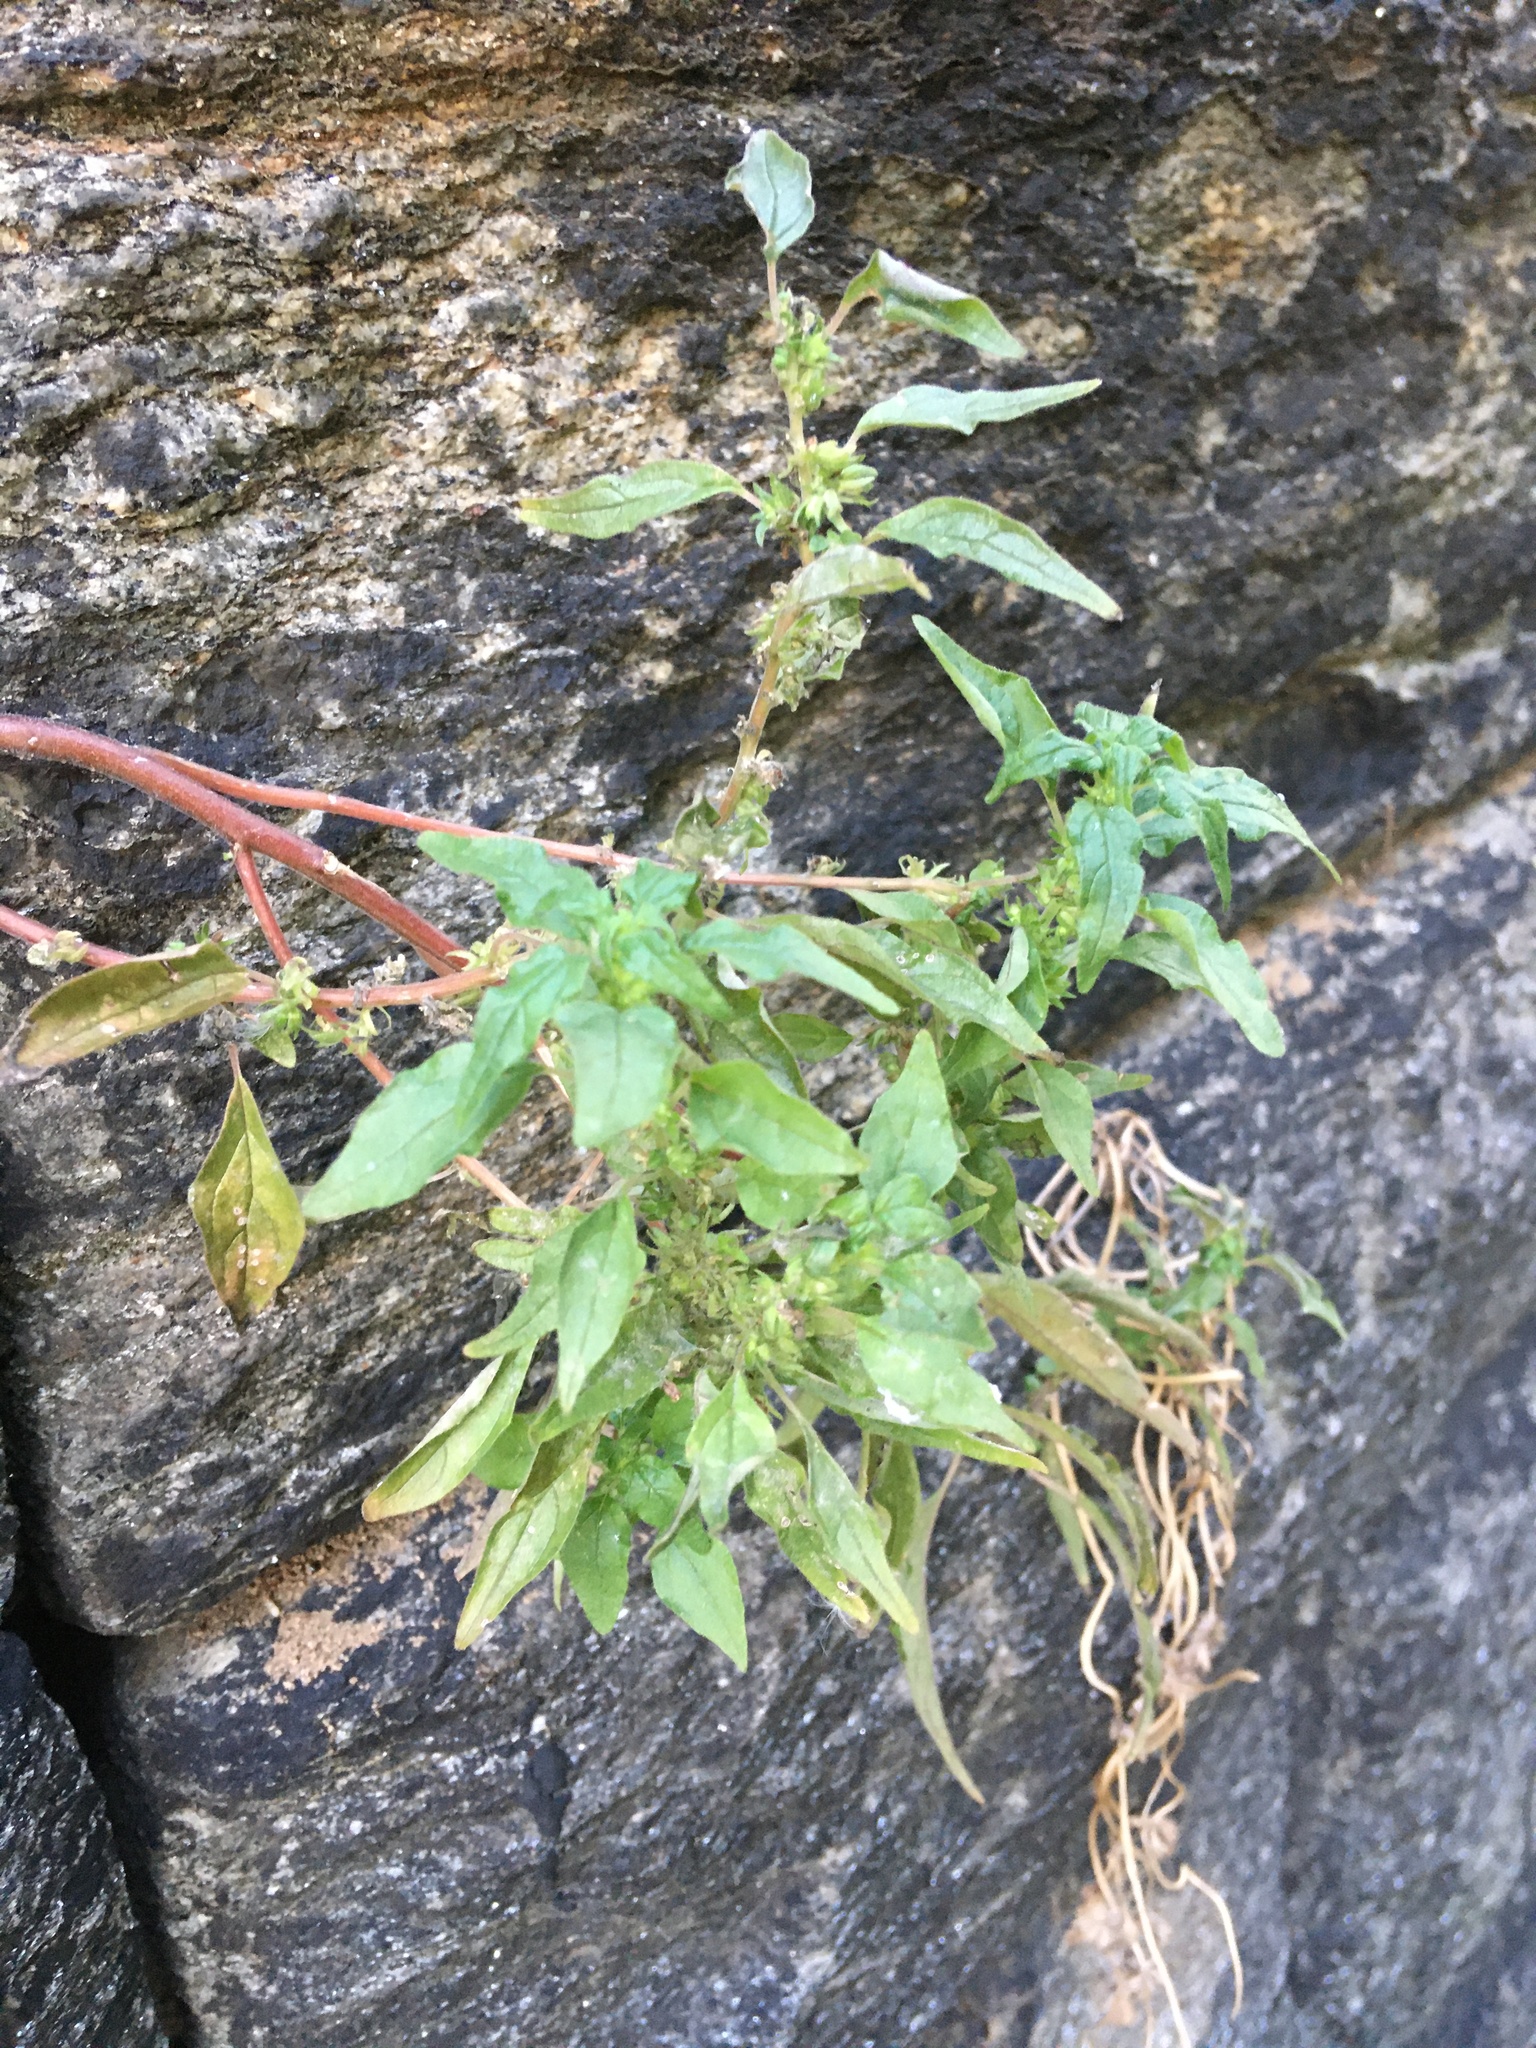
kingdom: Plantae
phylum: Tracheophyta
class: Magnoliopsida
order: Rosales
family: Urticaceae
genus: Parietaria
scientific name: Parietaria pensylvanica
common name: Pennsylvania pellitory
